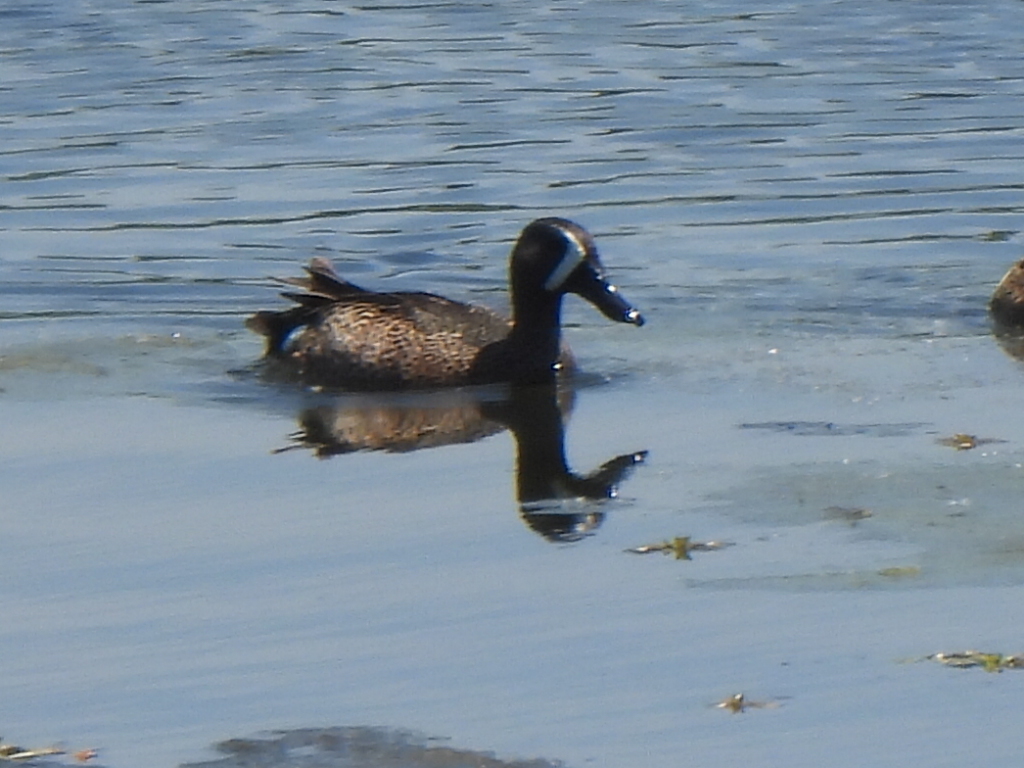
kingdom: Animalia
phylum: Chordata
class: Aves
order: Anseriformes
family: Anatidae
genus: Spatula
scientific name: Spatula discors
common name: Blue-winged teal
